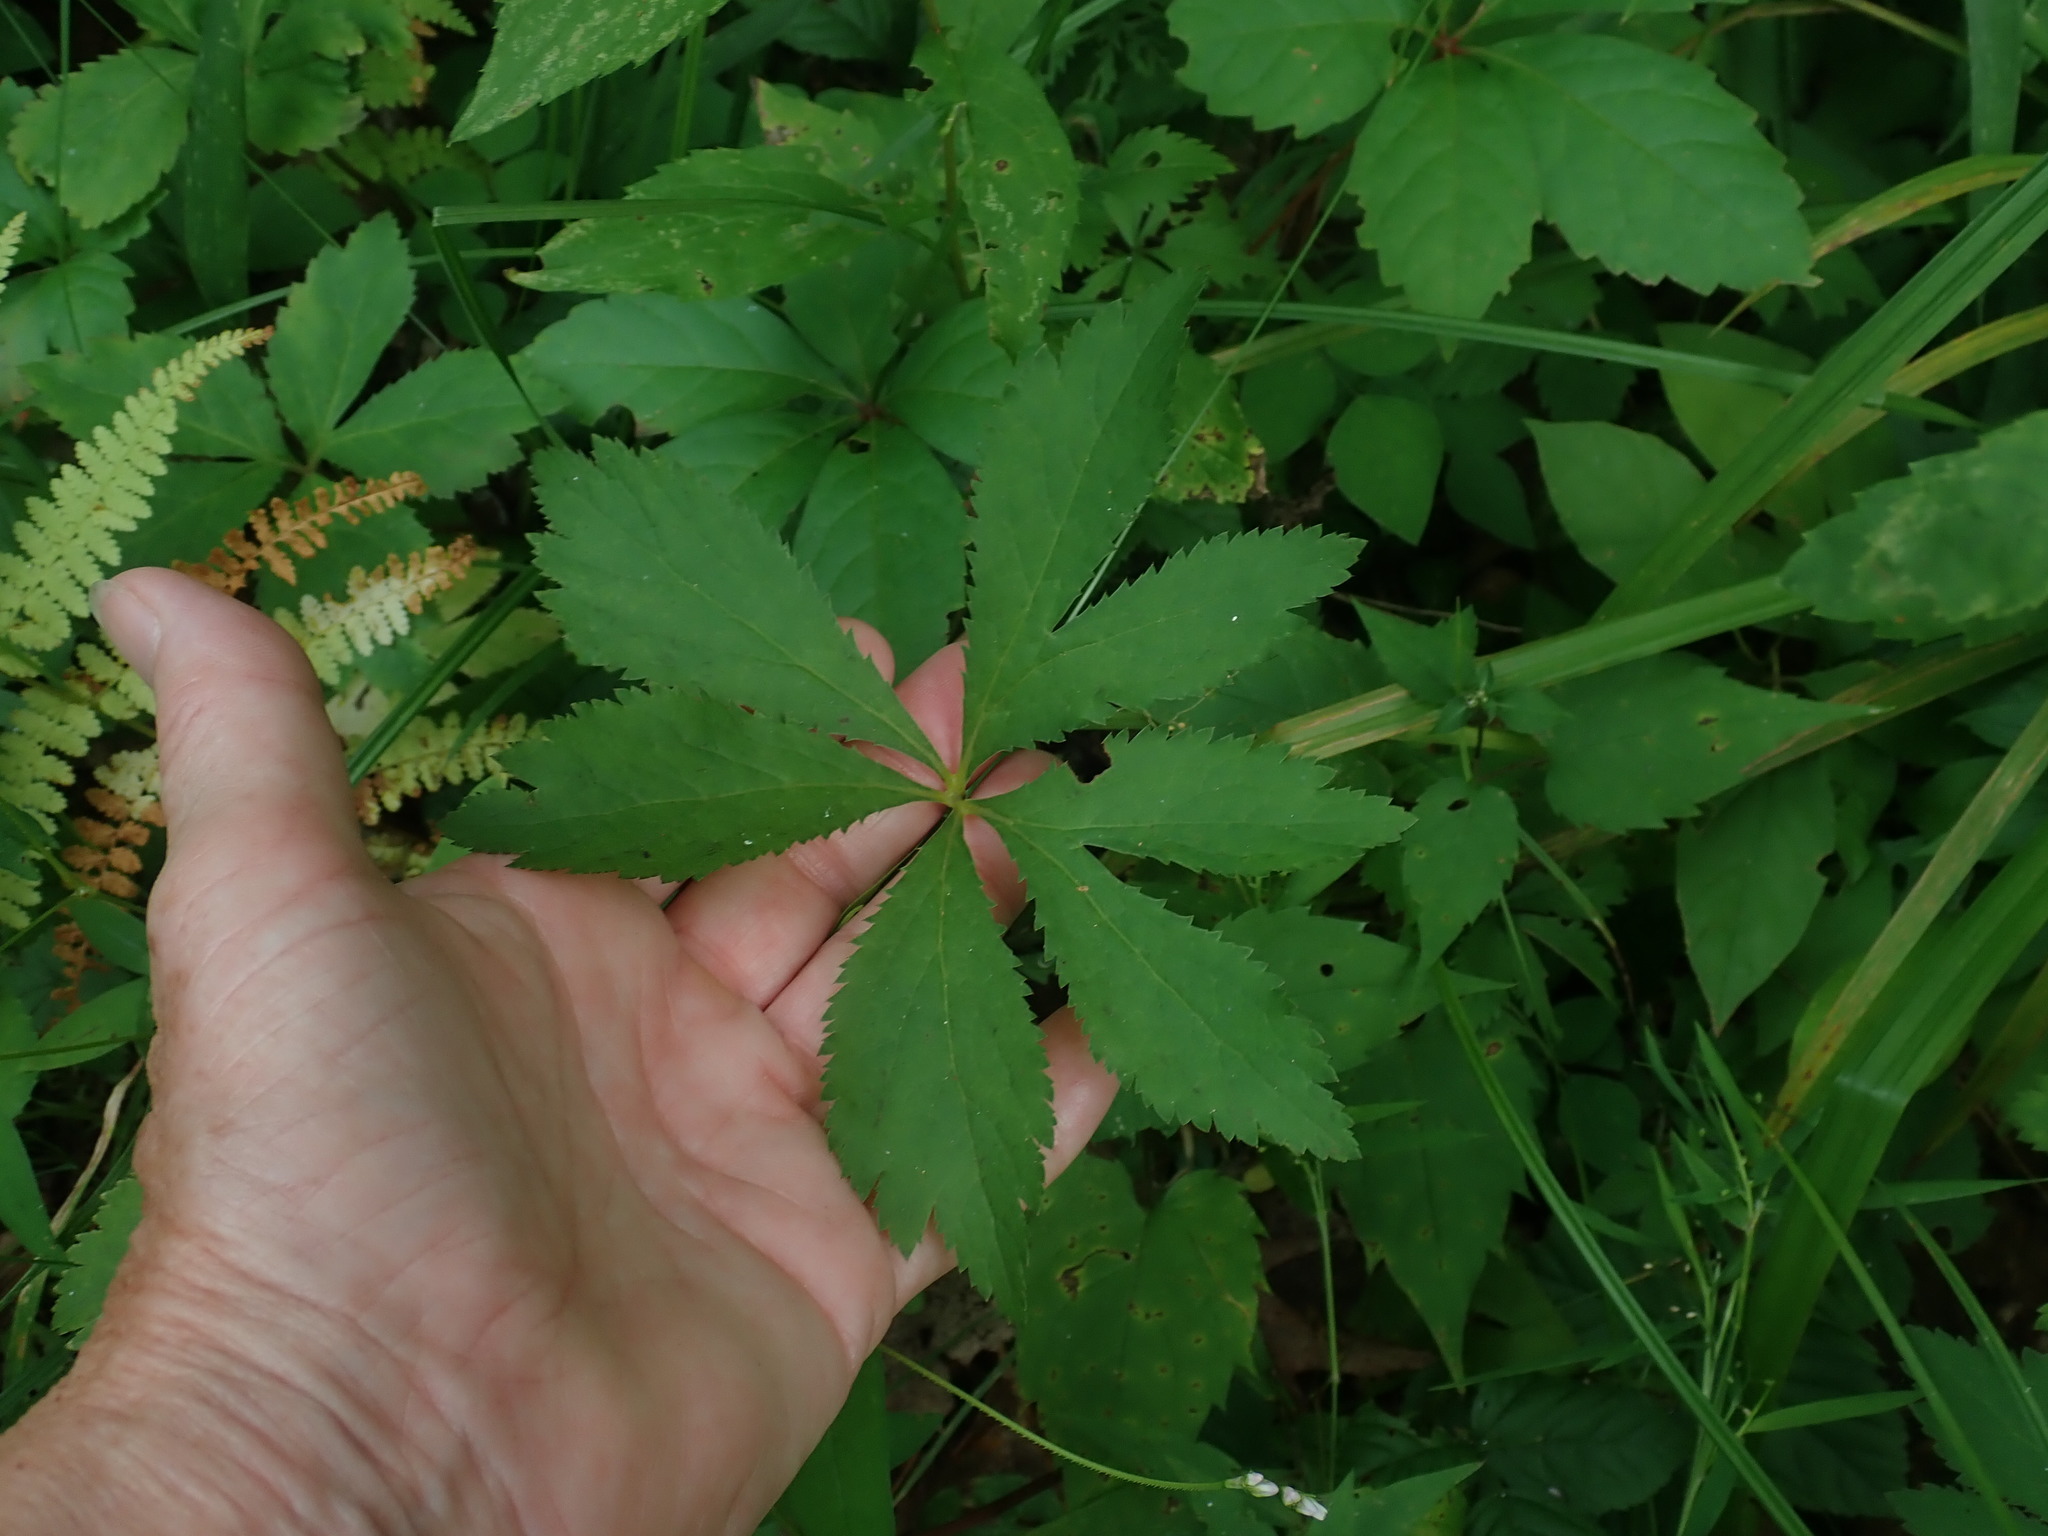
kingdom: Plantae
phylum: Tracheophyta
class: Magnoliopsida
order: Apiales
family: Apiaceae
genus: Sanicula
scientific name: Sanicula marilandica
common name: Black snakeroot
